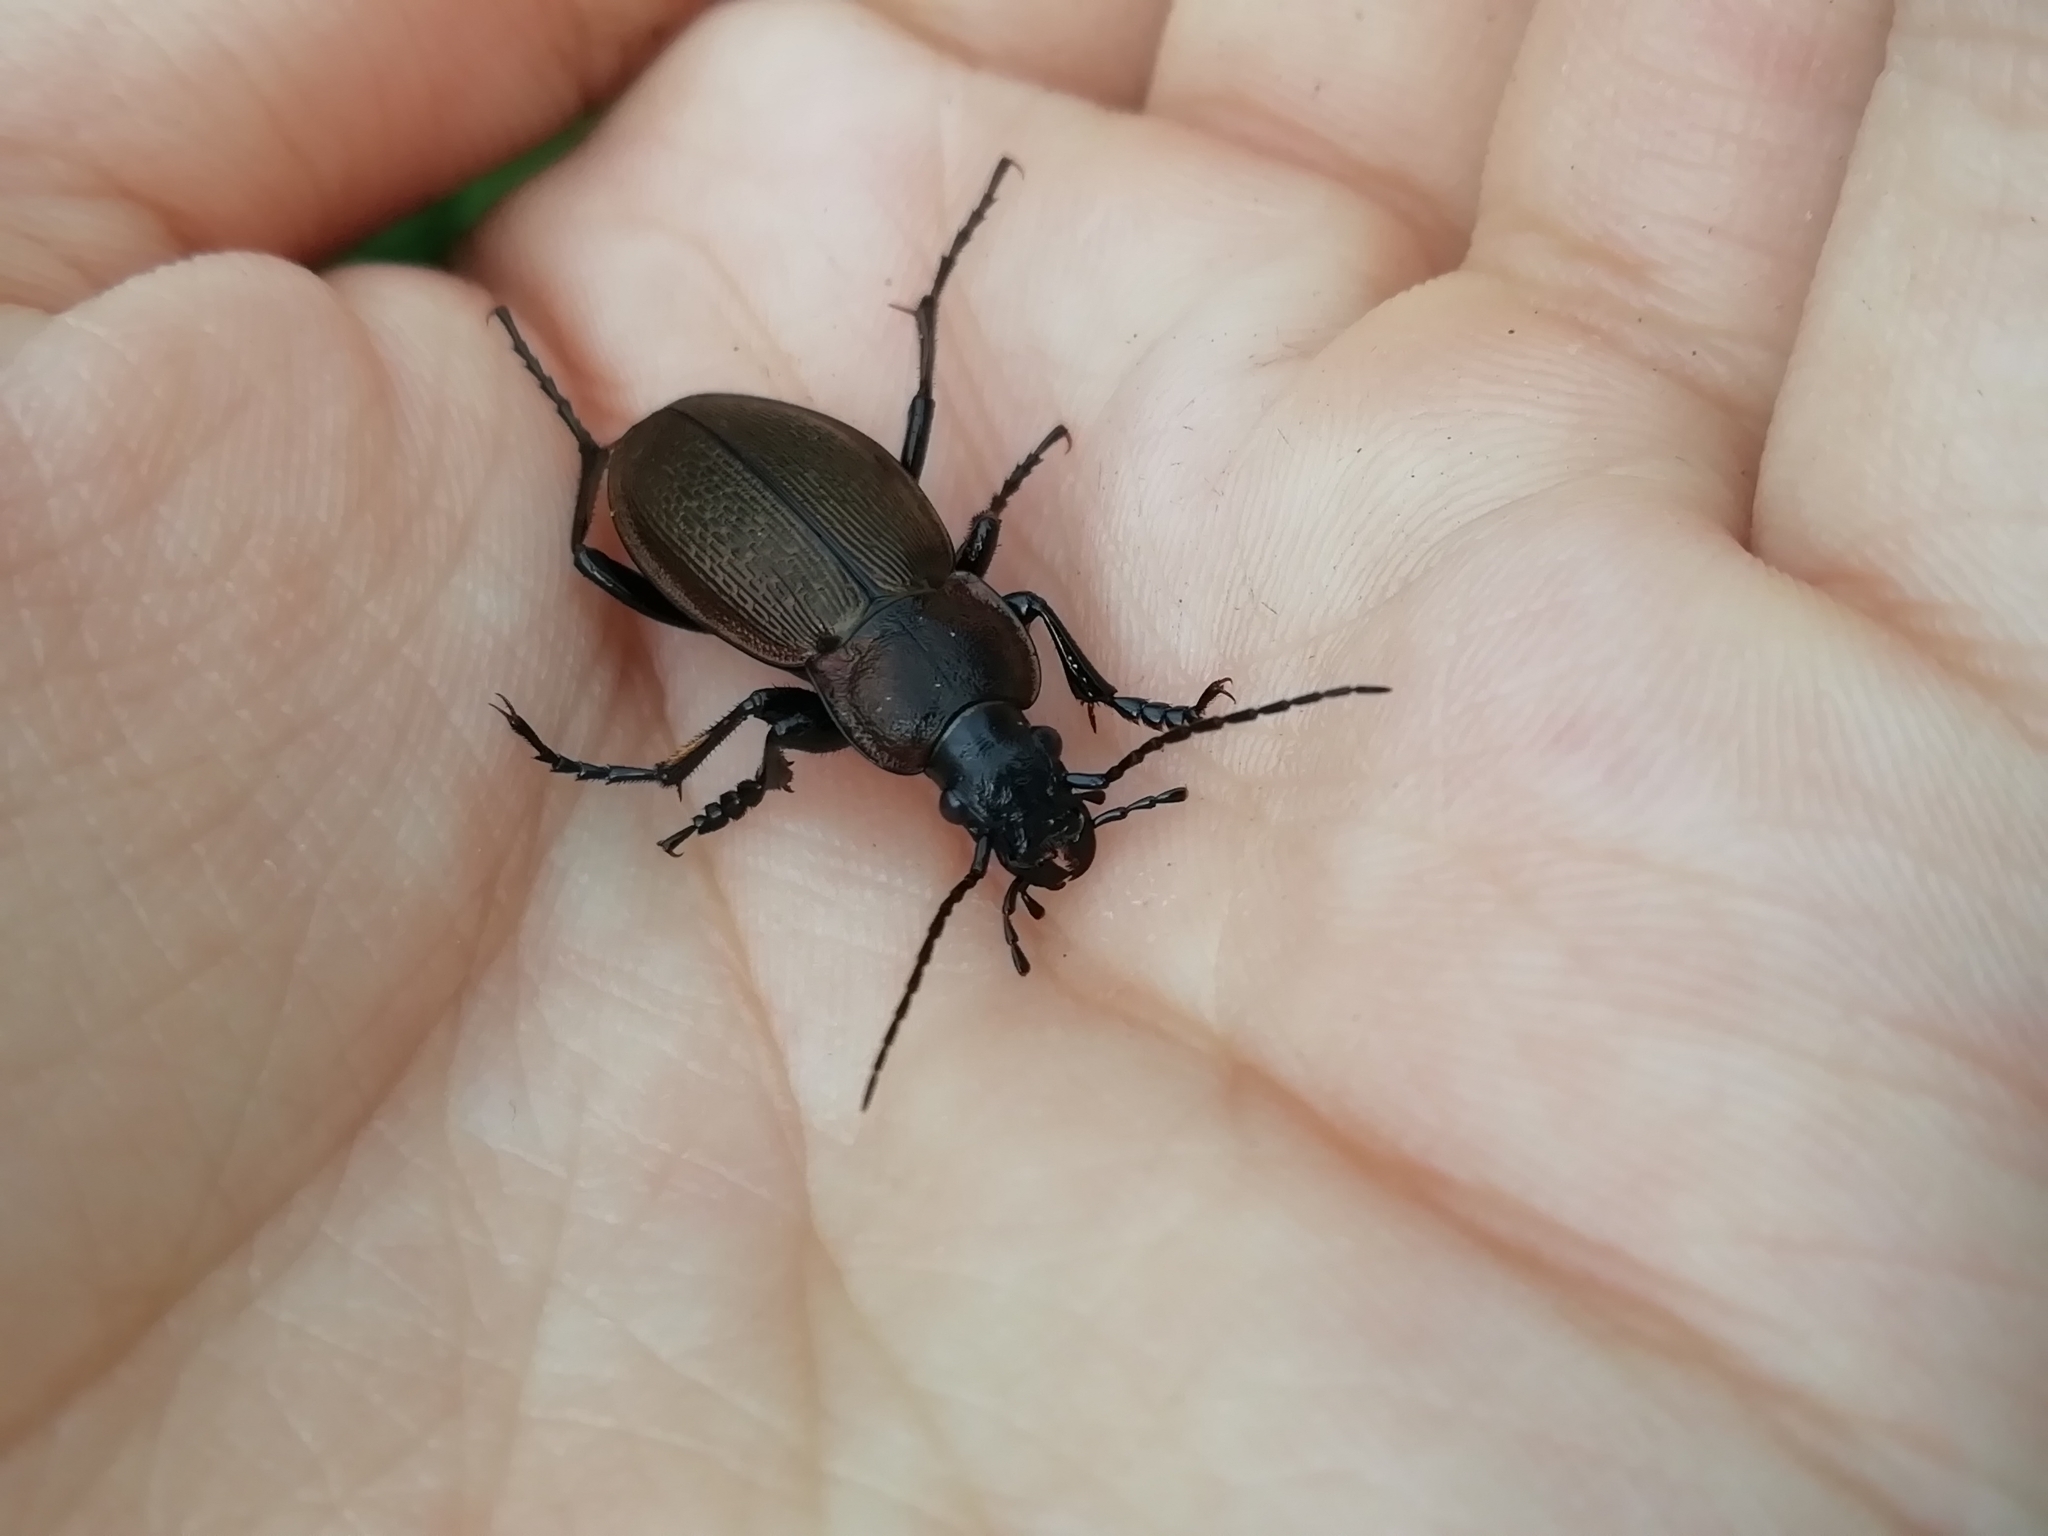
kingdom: Animalia
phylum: Arthropoda
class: Insecta
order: Coleoptera
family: Carabidae
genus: Carabus
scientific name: Carabus regalis
